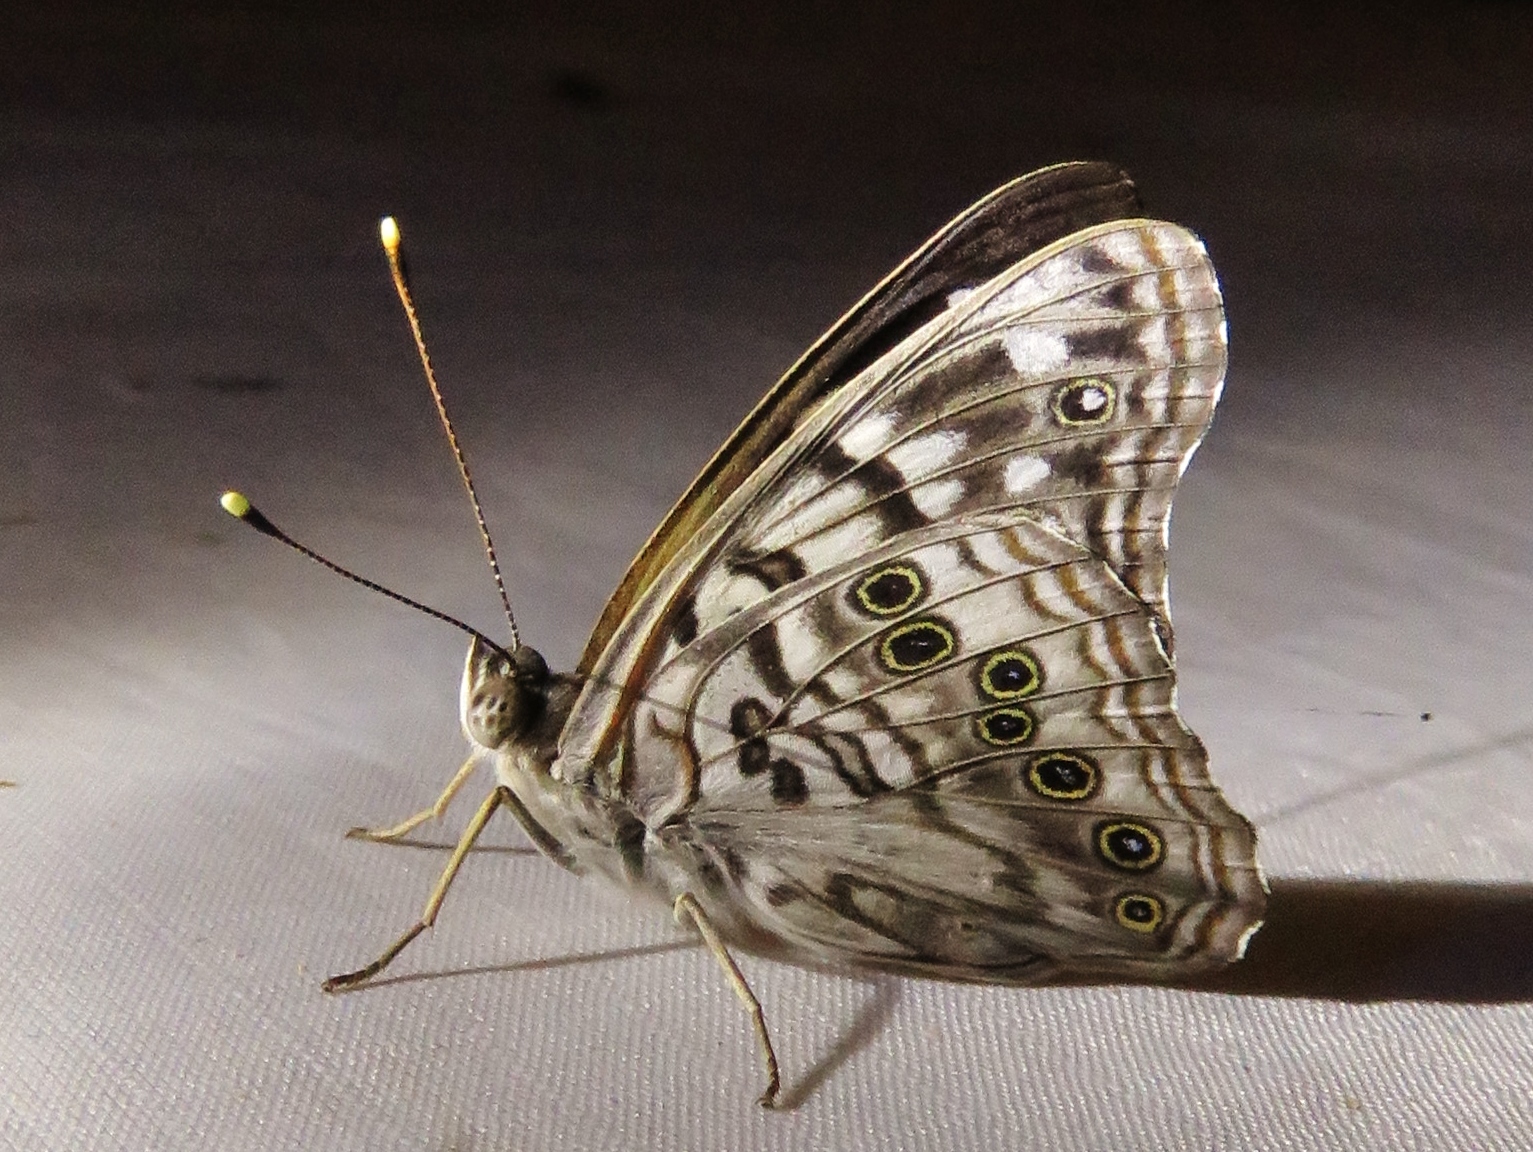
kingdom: Animalia
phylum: Arthropoda
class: Insecta
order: Lepidoptera
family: Nymphalidae
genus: Asterocampa
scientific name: Asterocampa celtis
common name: Hackberry emperor
